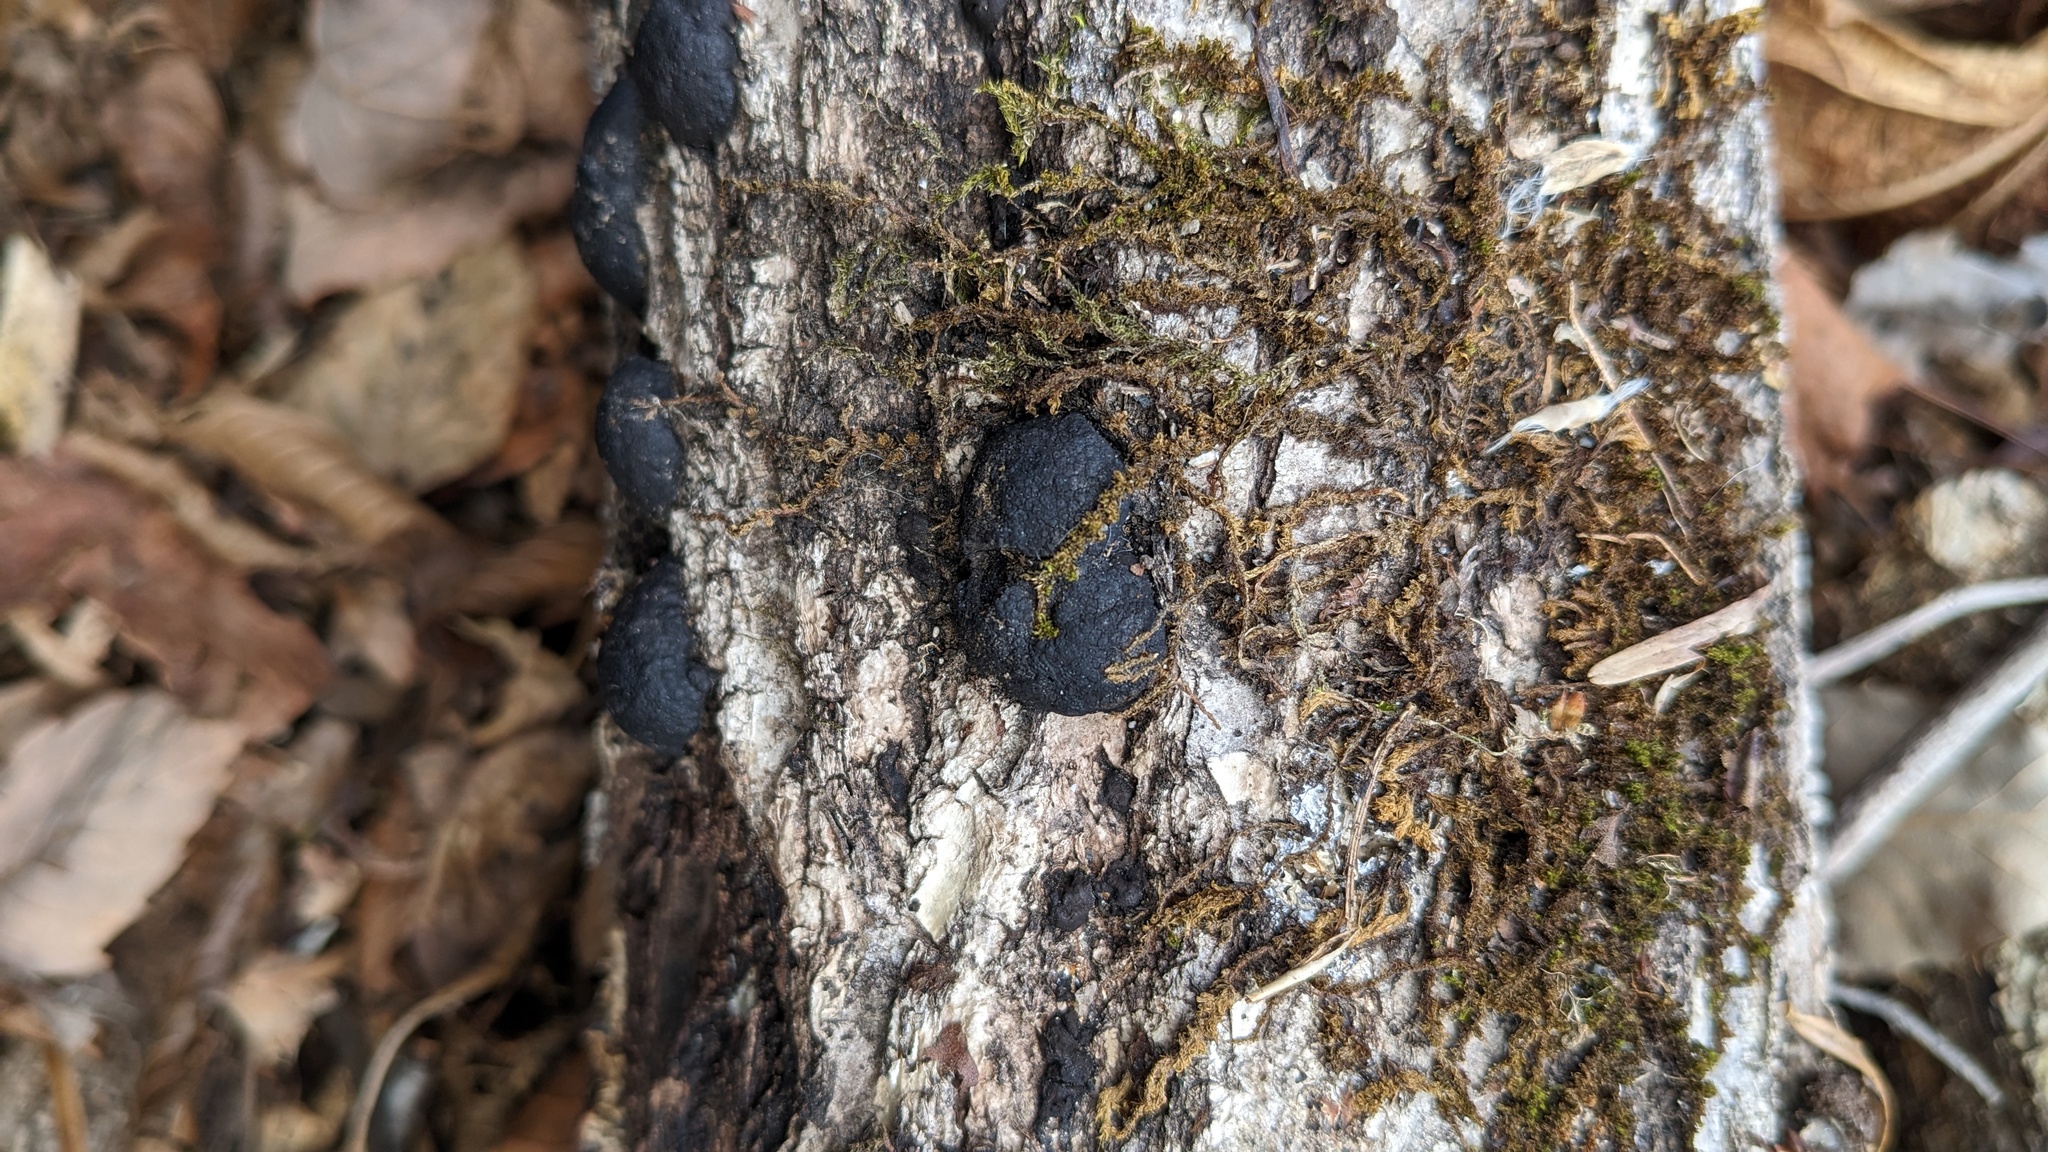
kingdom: Fungi
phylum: Ascomycota
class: Sordariomycetes
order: Xylariales
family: Hypoxylaceae
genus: Annulohypoxylon
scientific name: Annulohypoxylon truncatum
